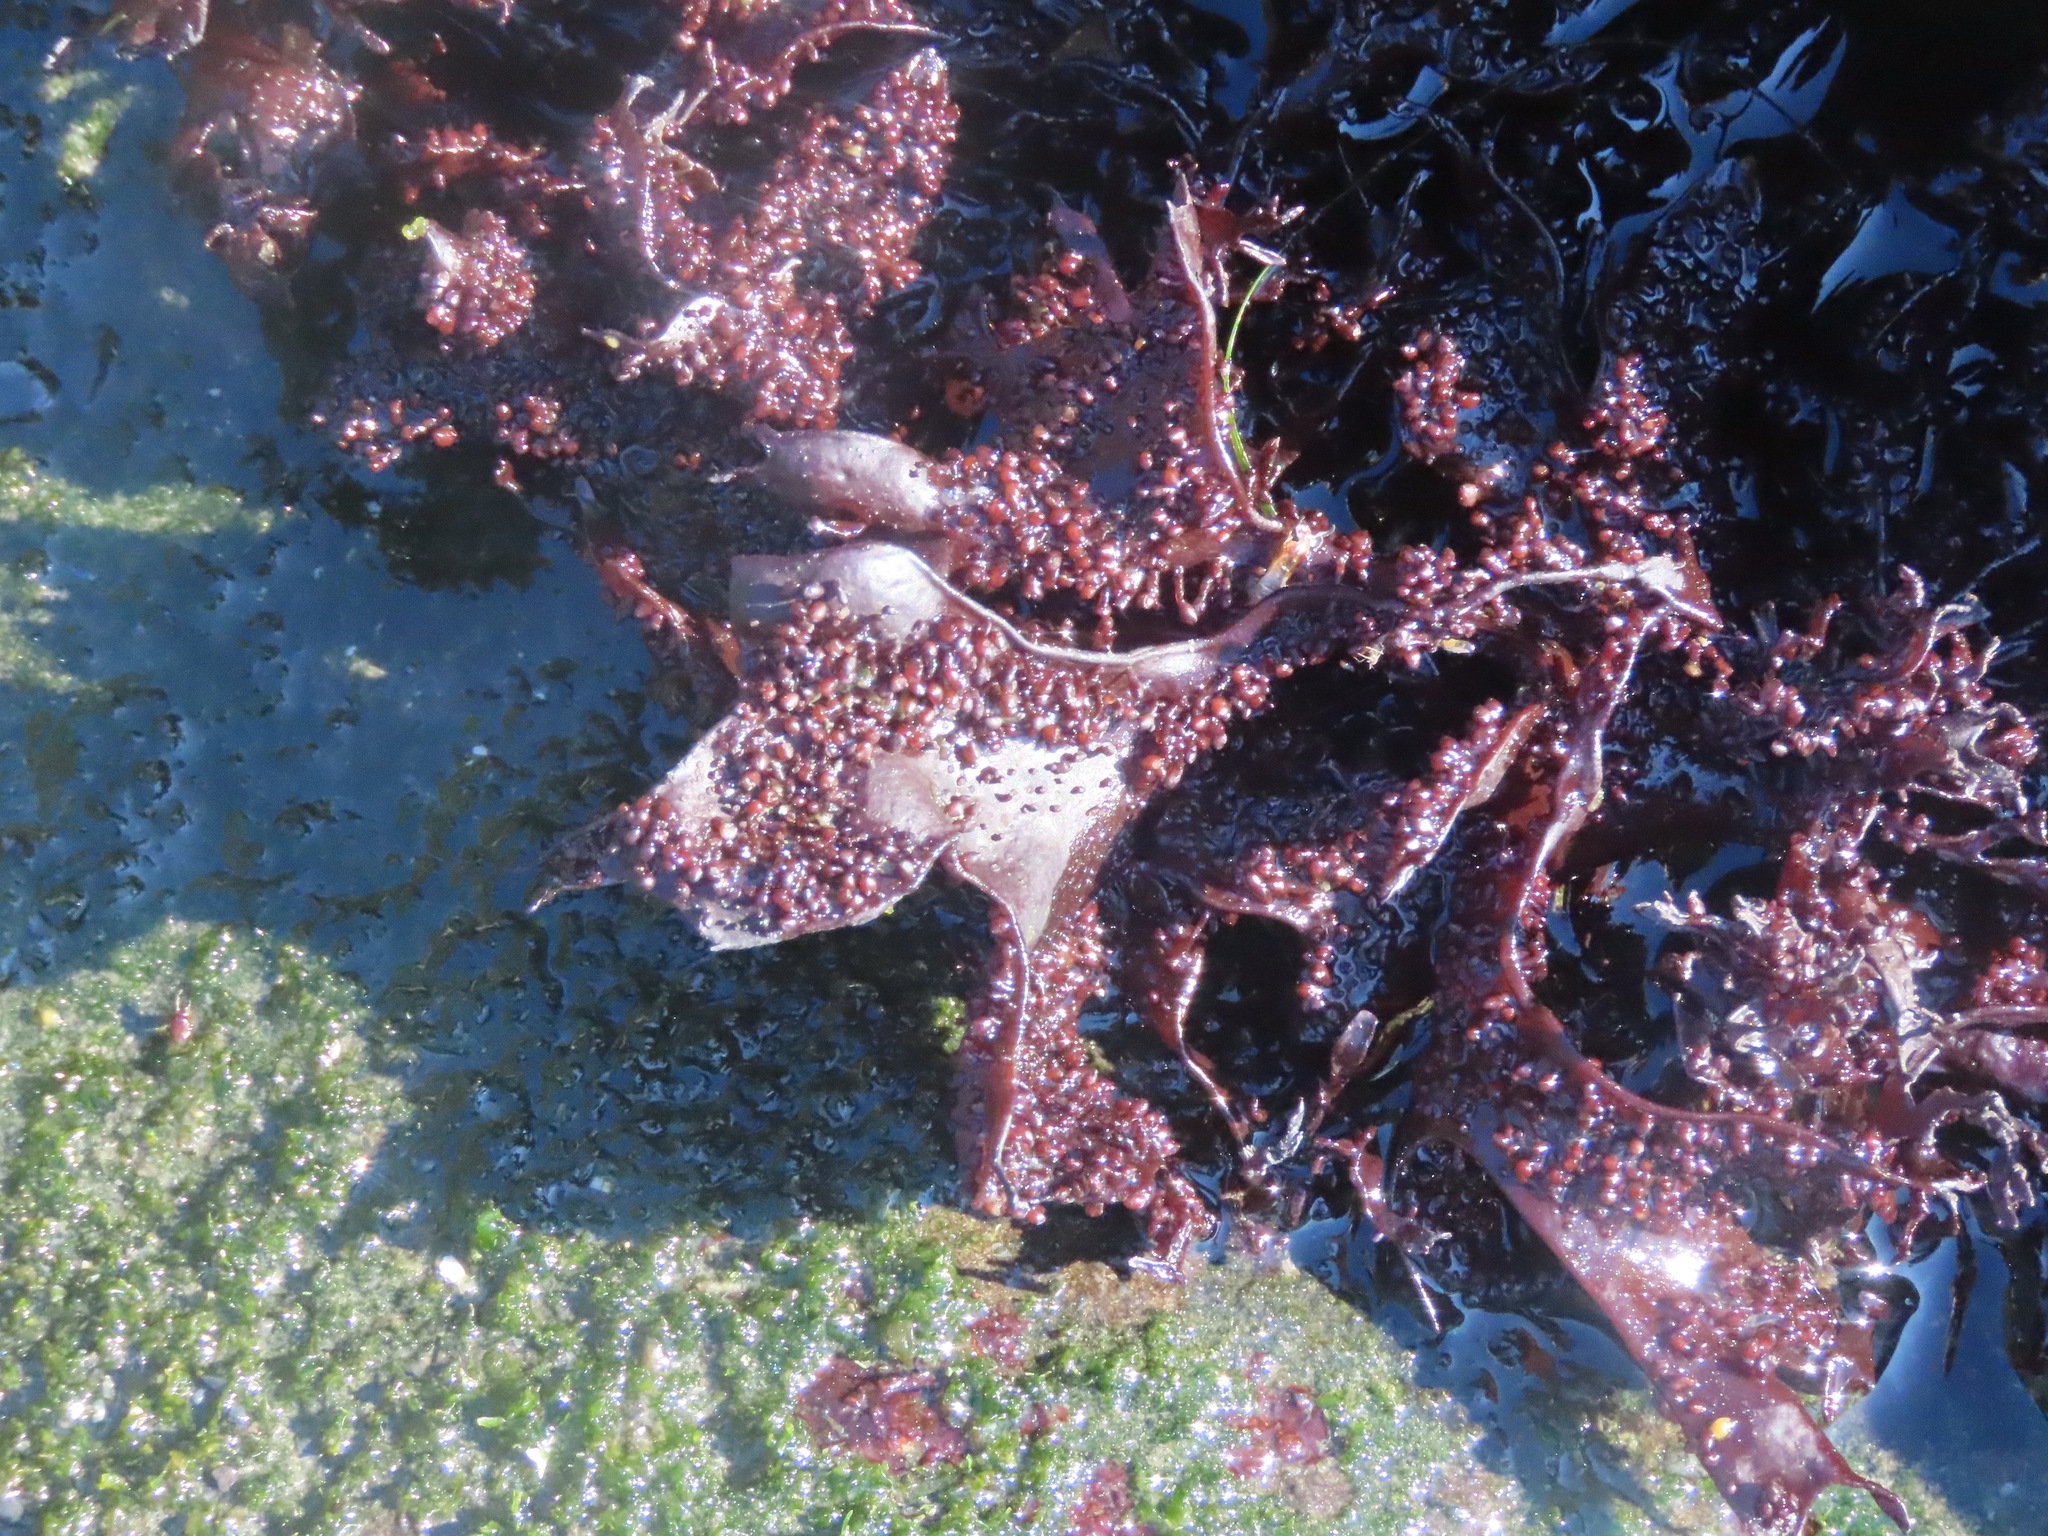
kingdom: Plantae
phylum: Rhodophyta
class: Florideophyceae
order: Gigartinales
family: Phyllophoraceae
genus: Mastocarpus
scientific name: Mastocarpus papillatus
